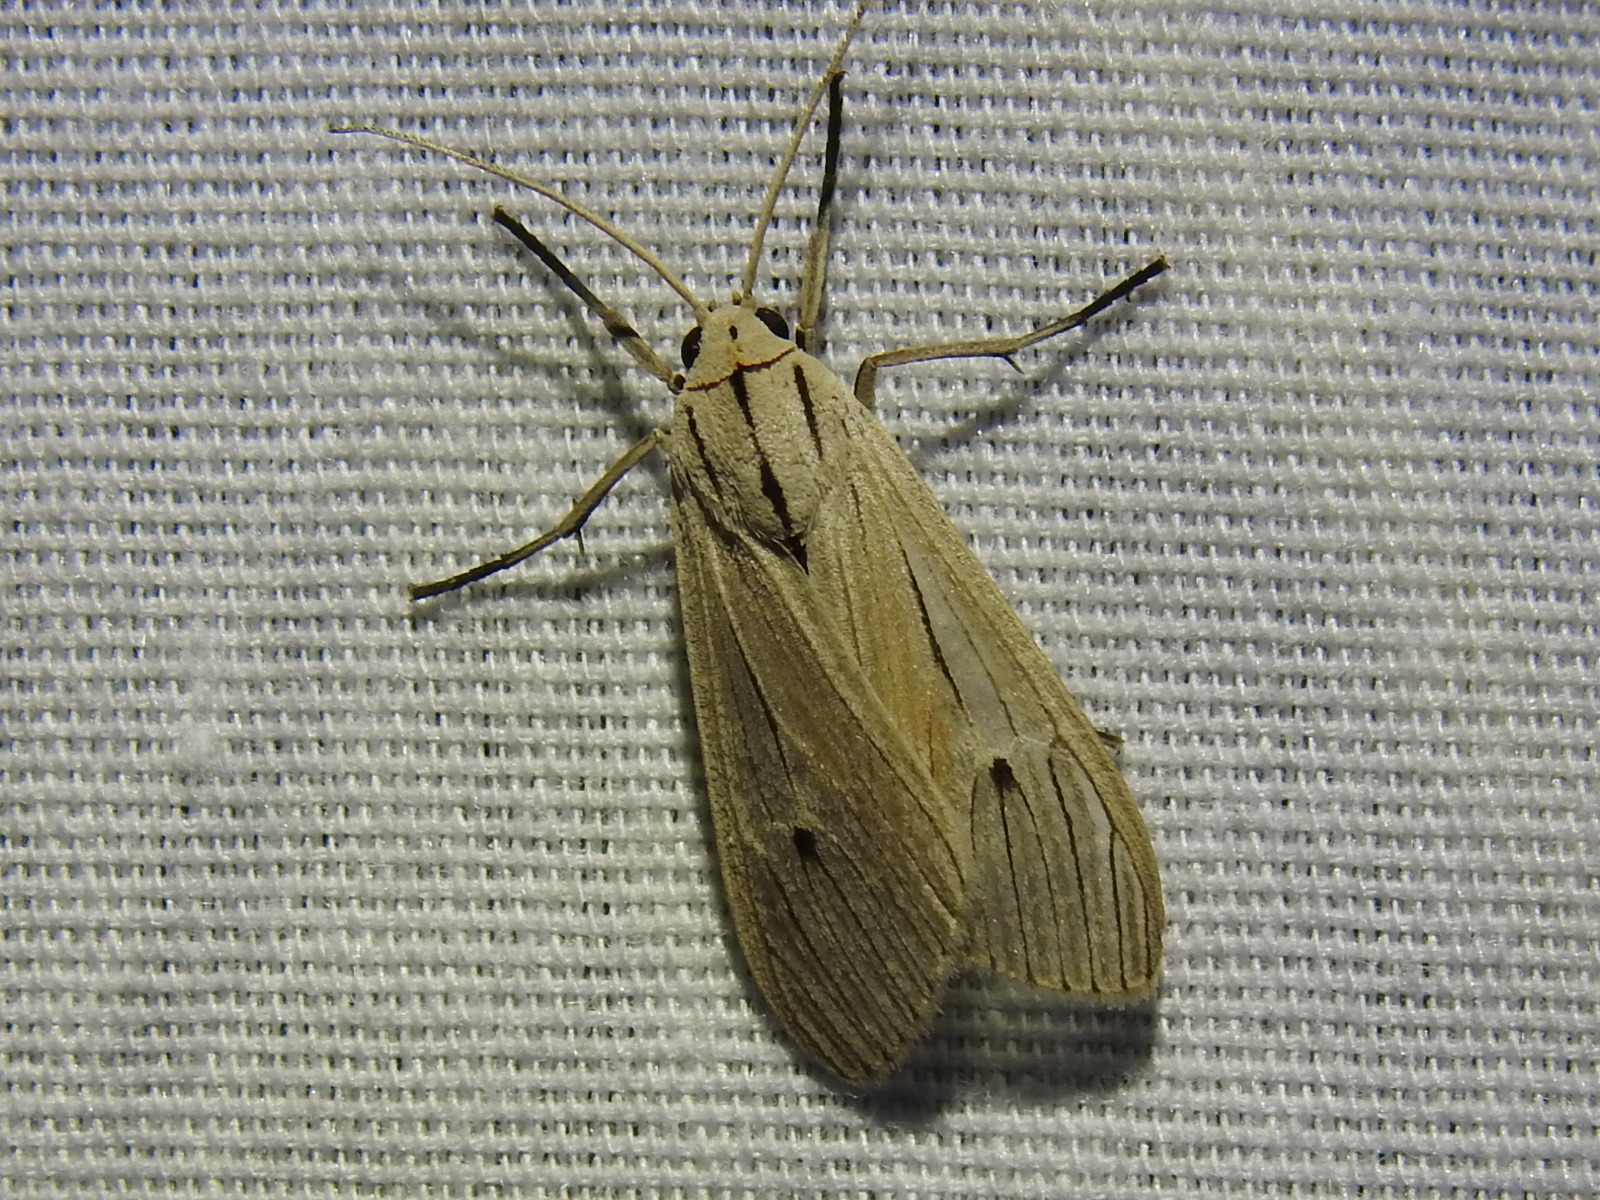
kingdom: Animalia
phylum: Arthropoda
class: Insecta
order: Lepidoptera
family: Erebidae
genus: Arctagyrta
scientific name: Arctagyrta Agaraea semivitrea
